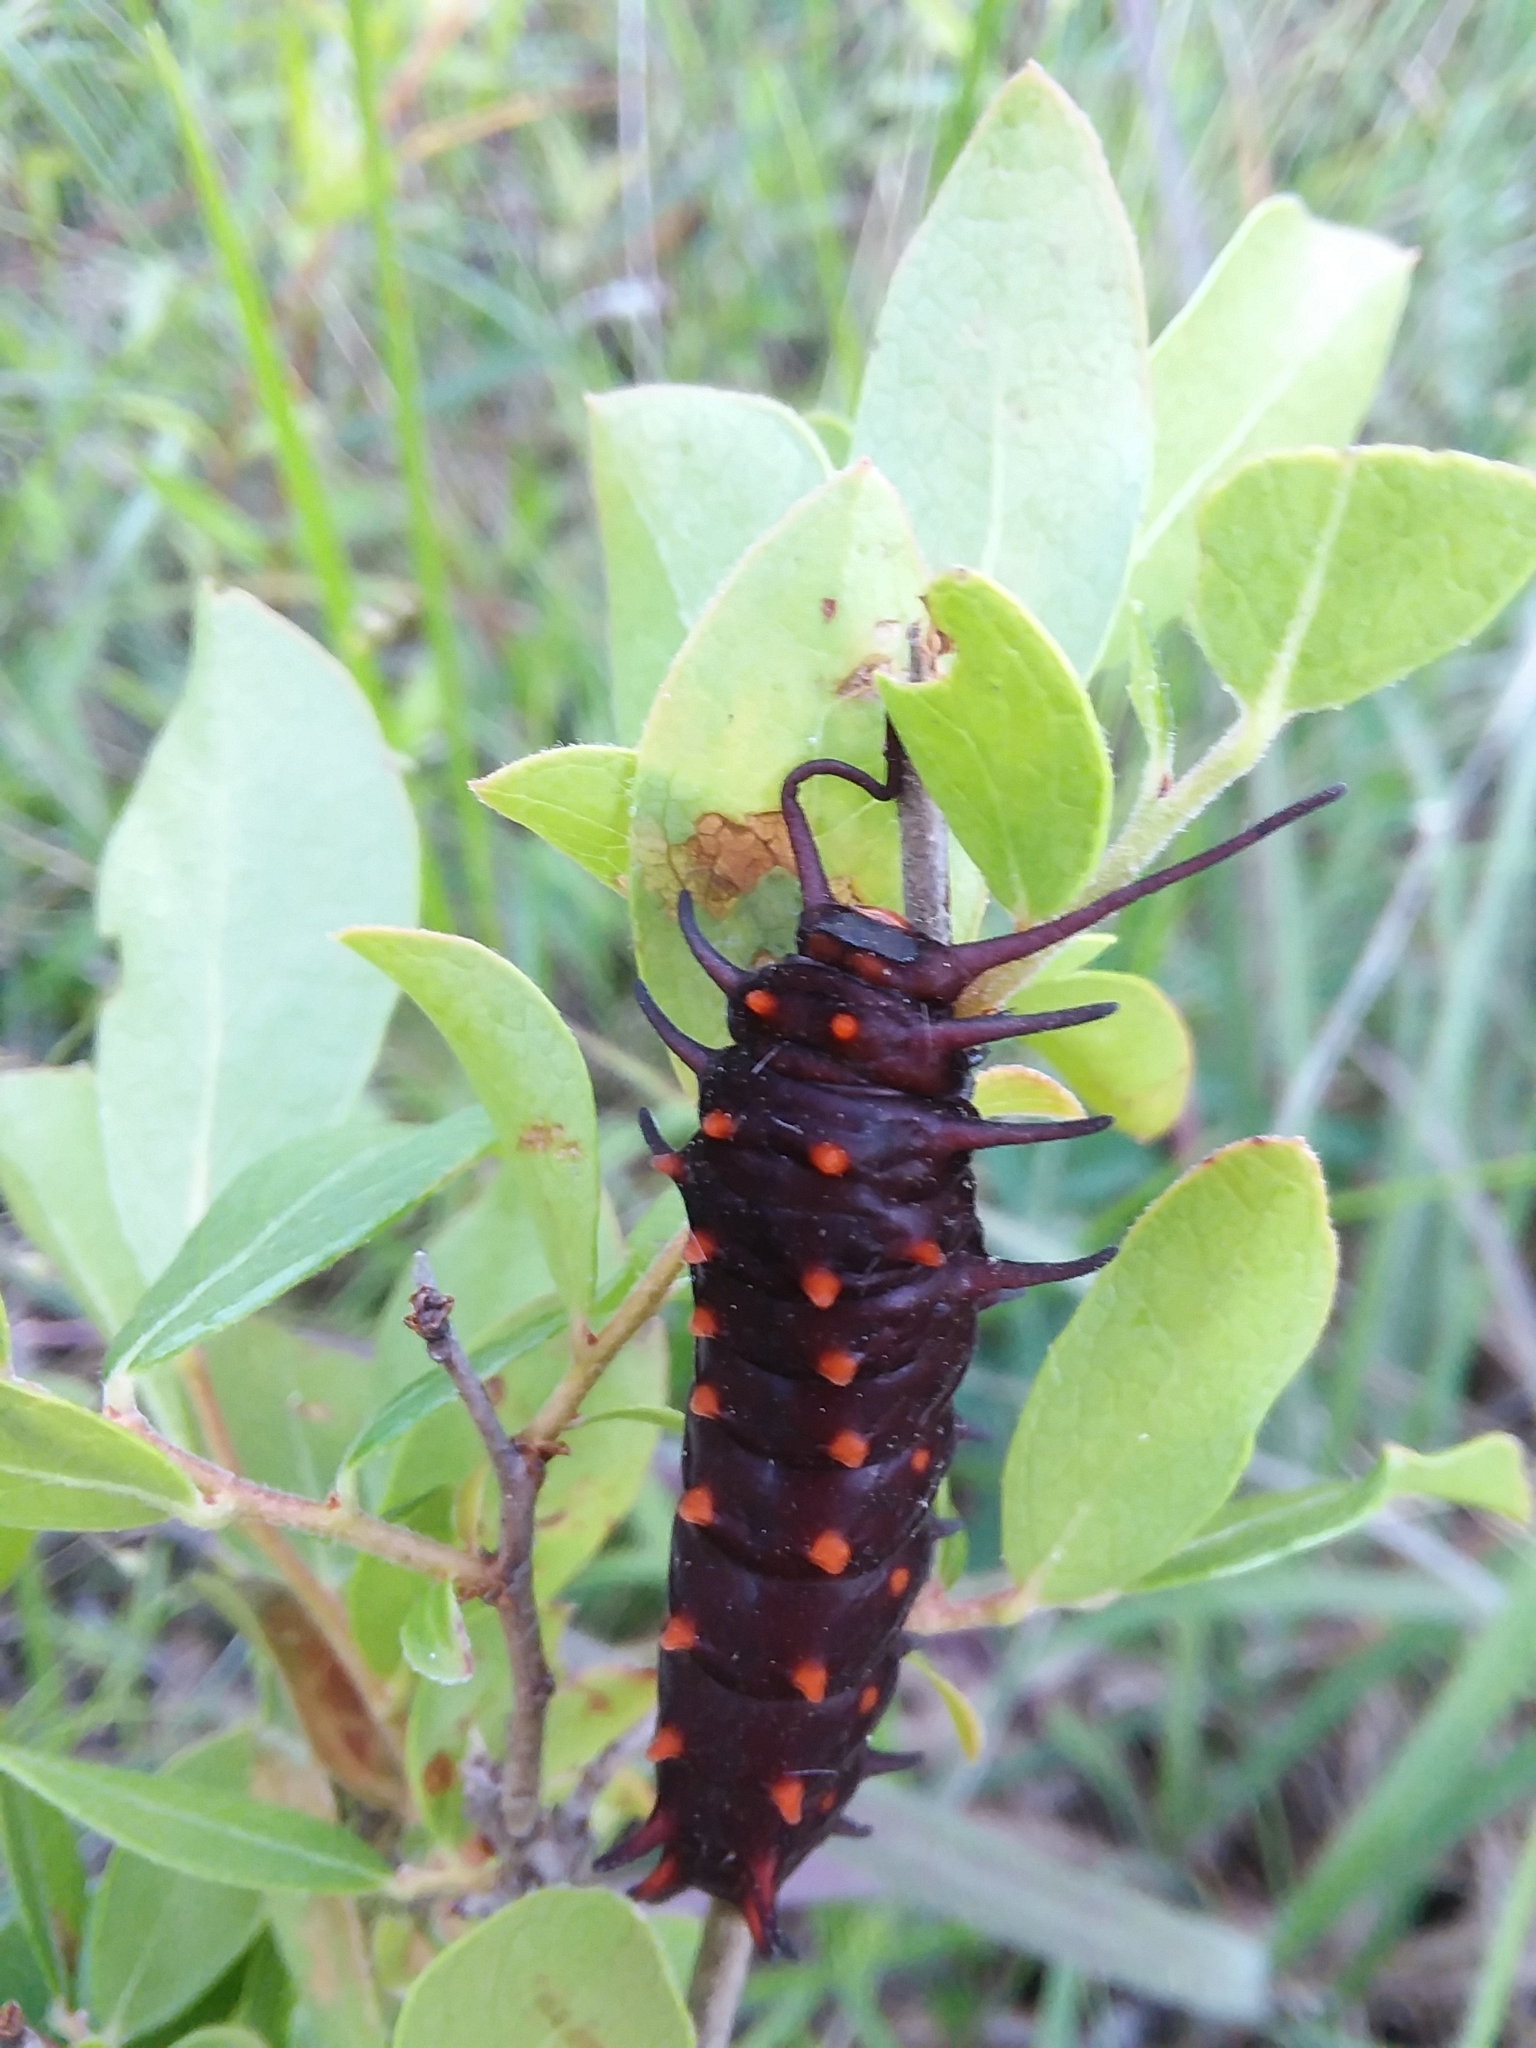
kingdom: Animalia
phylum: Arthropoda
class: Insecta
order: Lepidoptera
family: Papilionidae
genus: Battus
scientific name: Battus philenor
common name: Pipevine swallowtail
